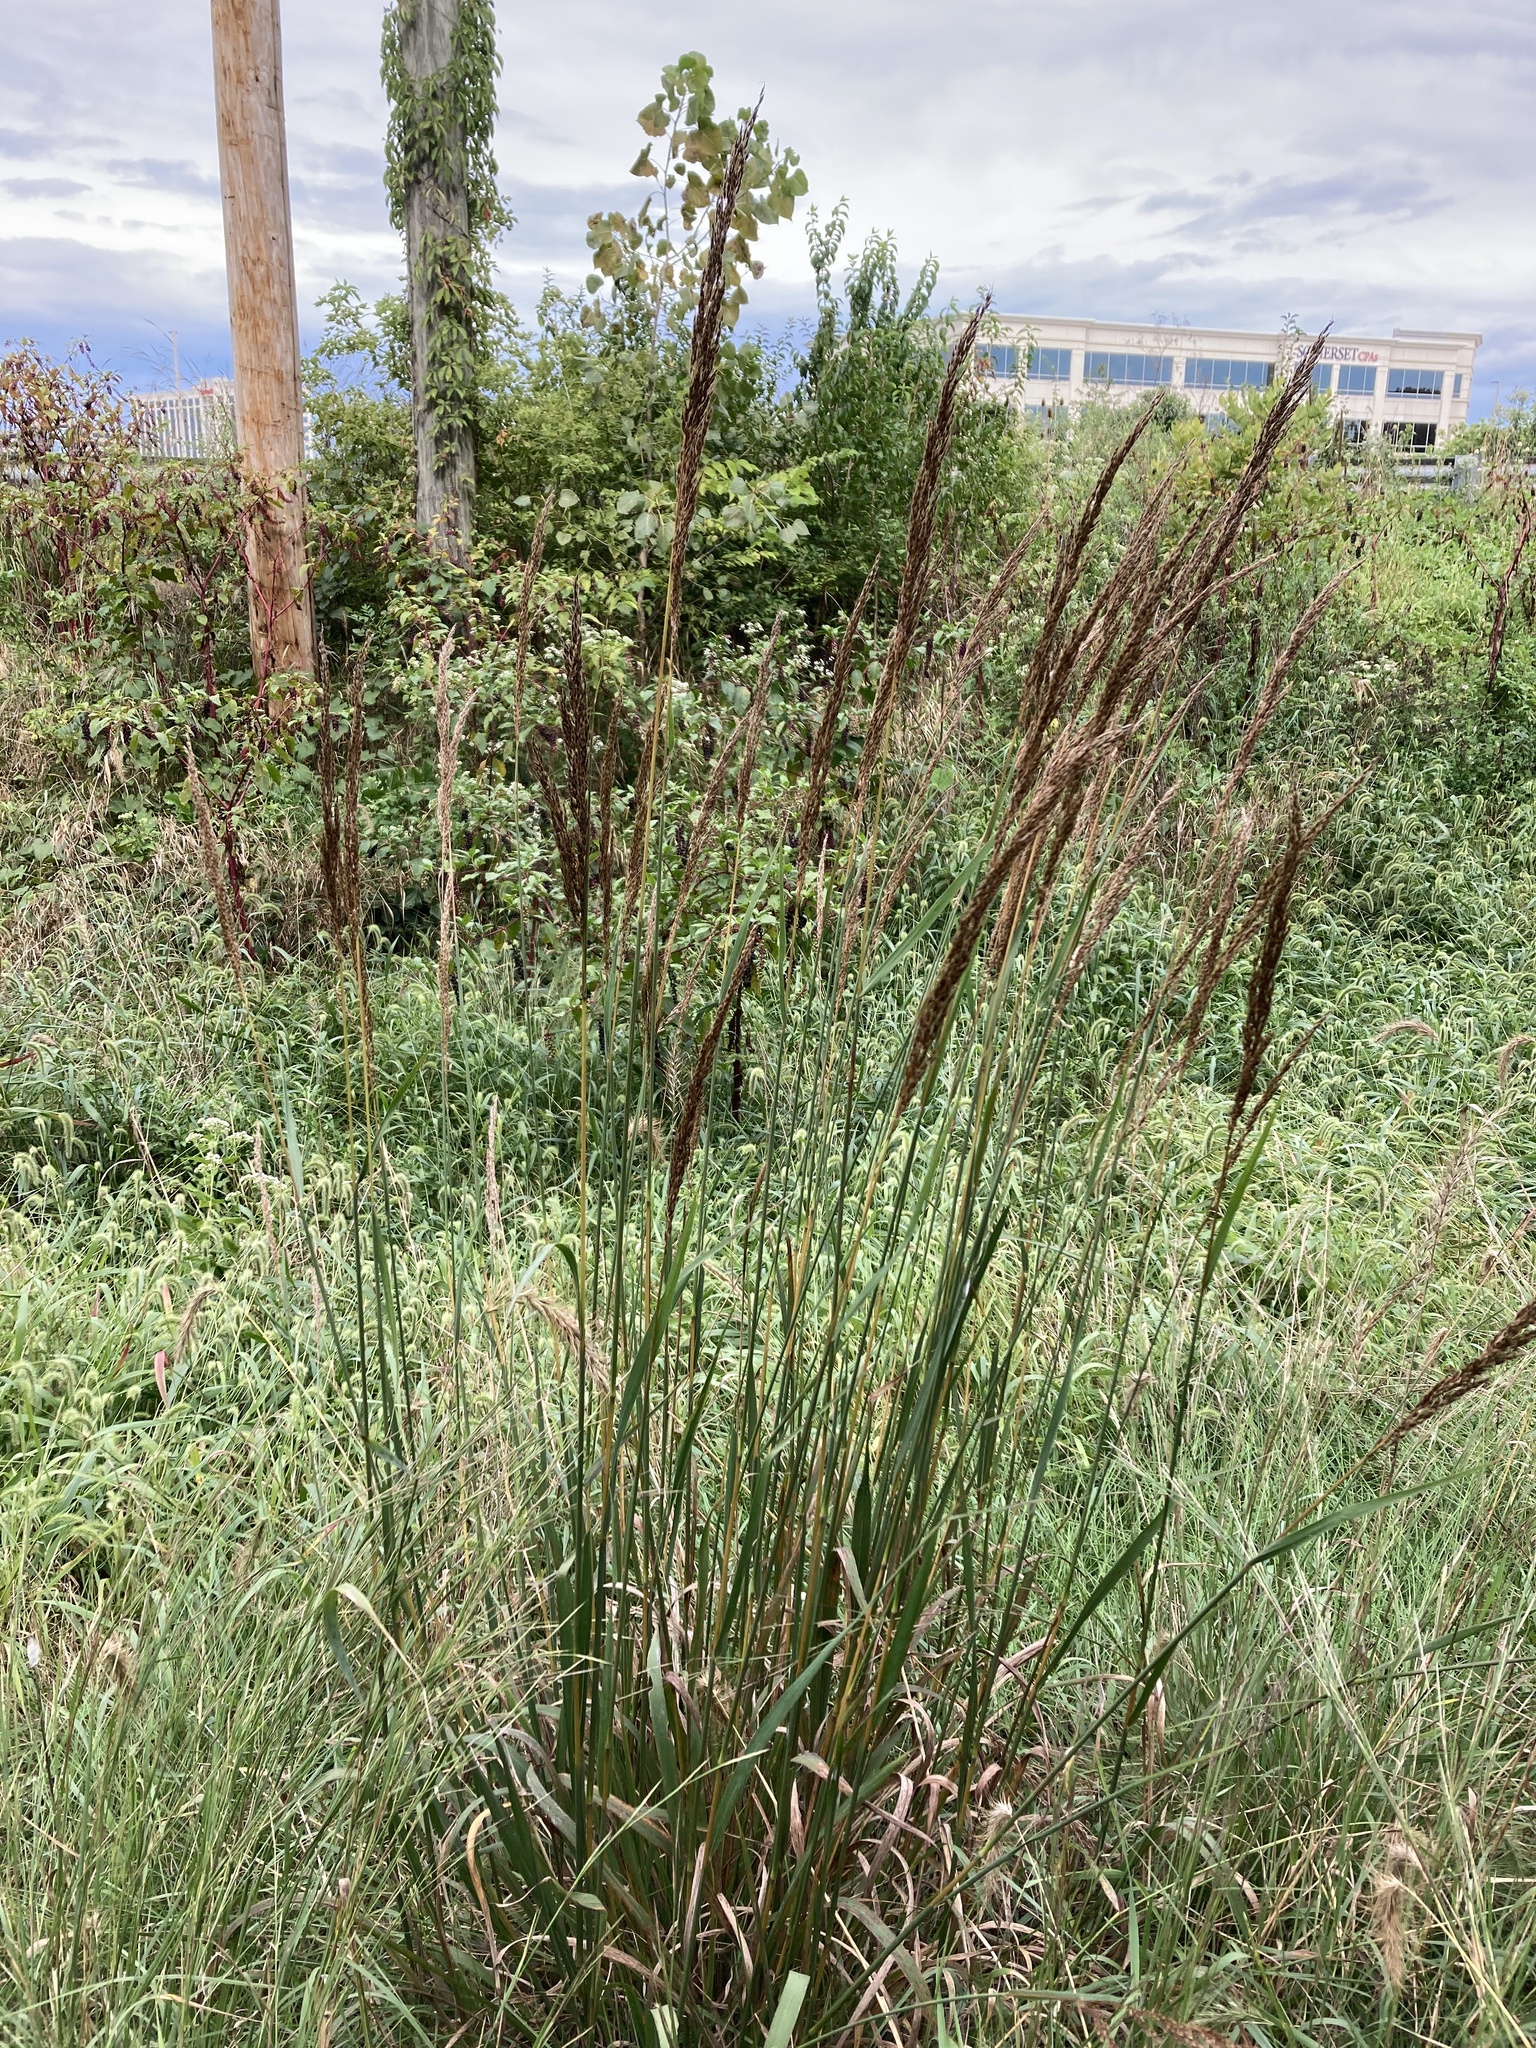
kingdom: Plantae
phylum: Tracheophyta
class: Liliopsida
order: Poales
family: Poaceae
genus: Sorghastrum
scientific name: Sorghastrum nutans
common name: Indian grass
